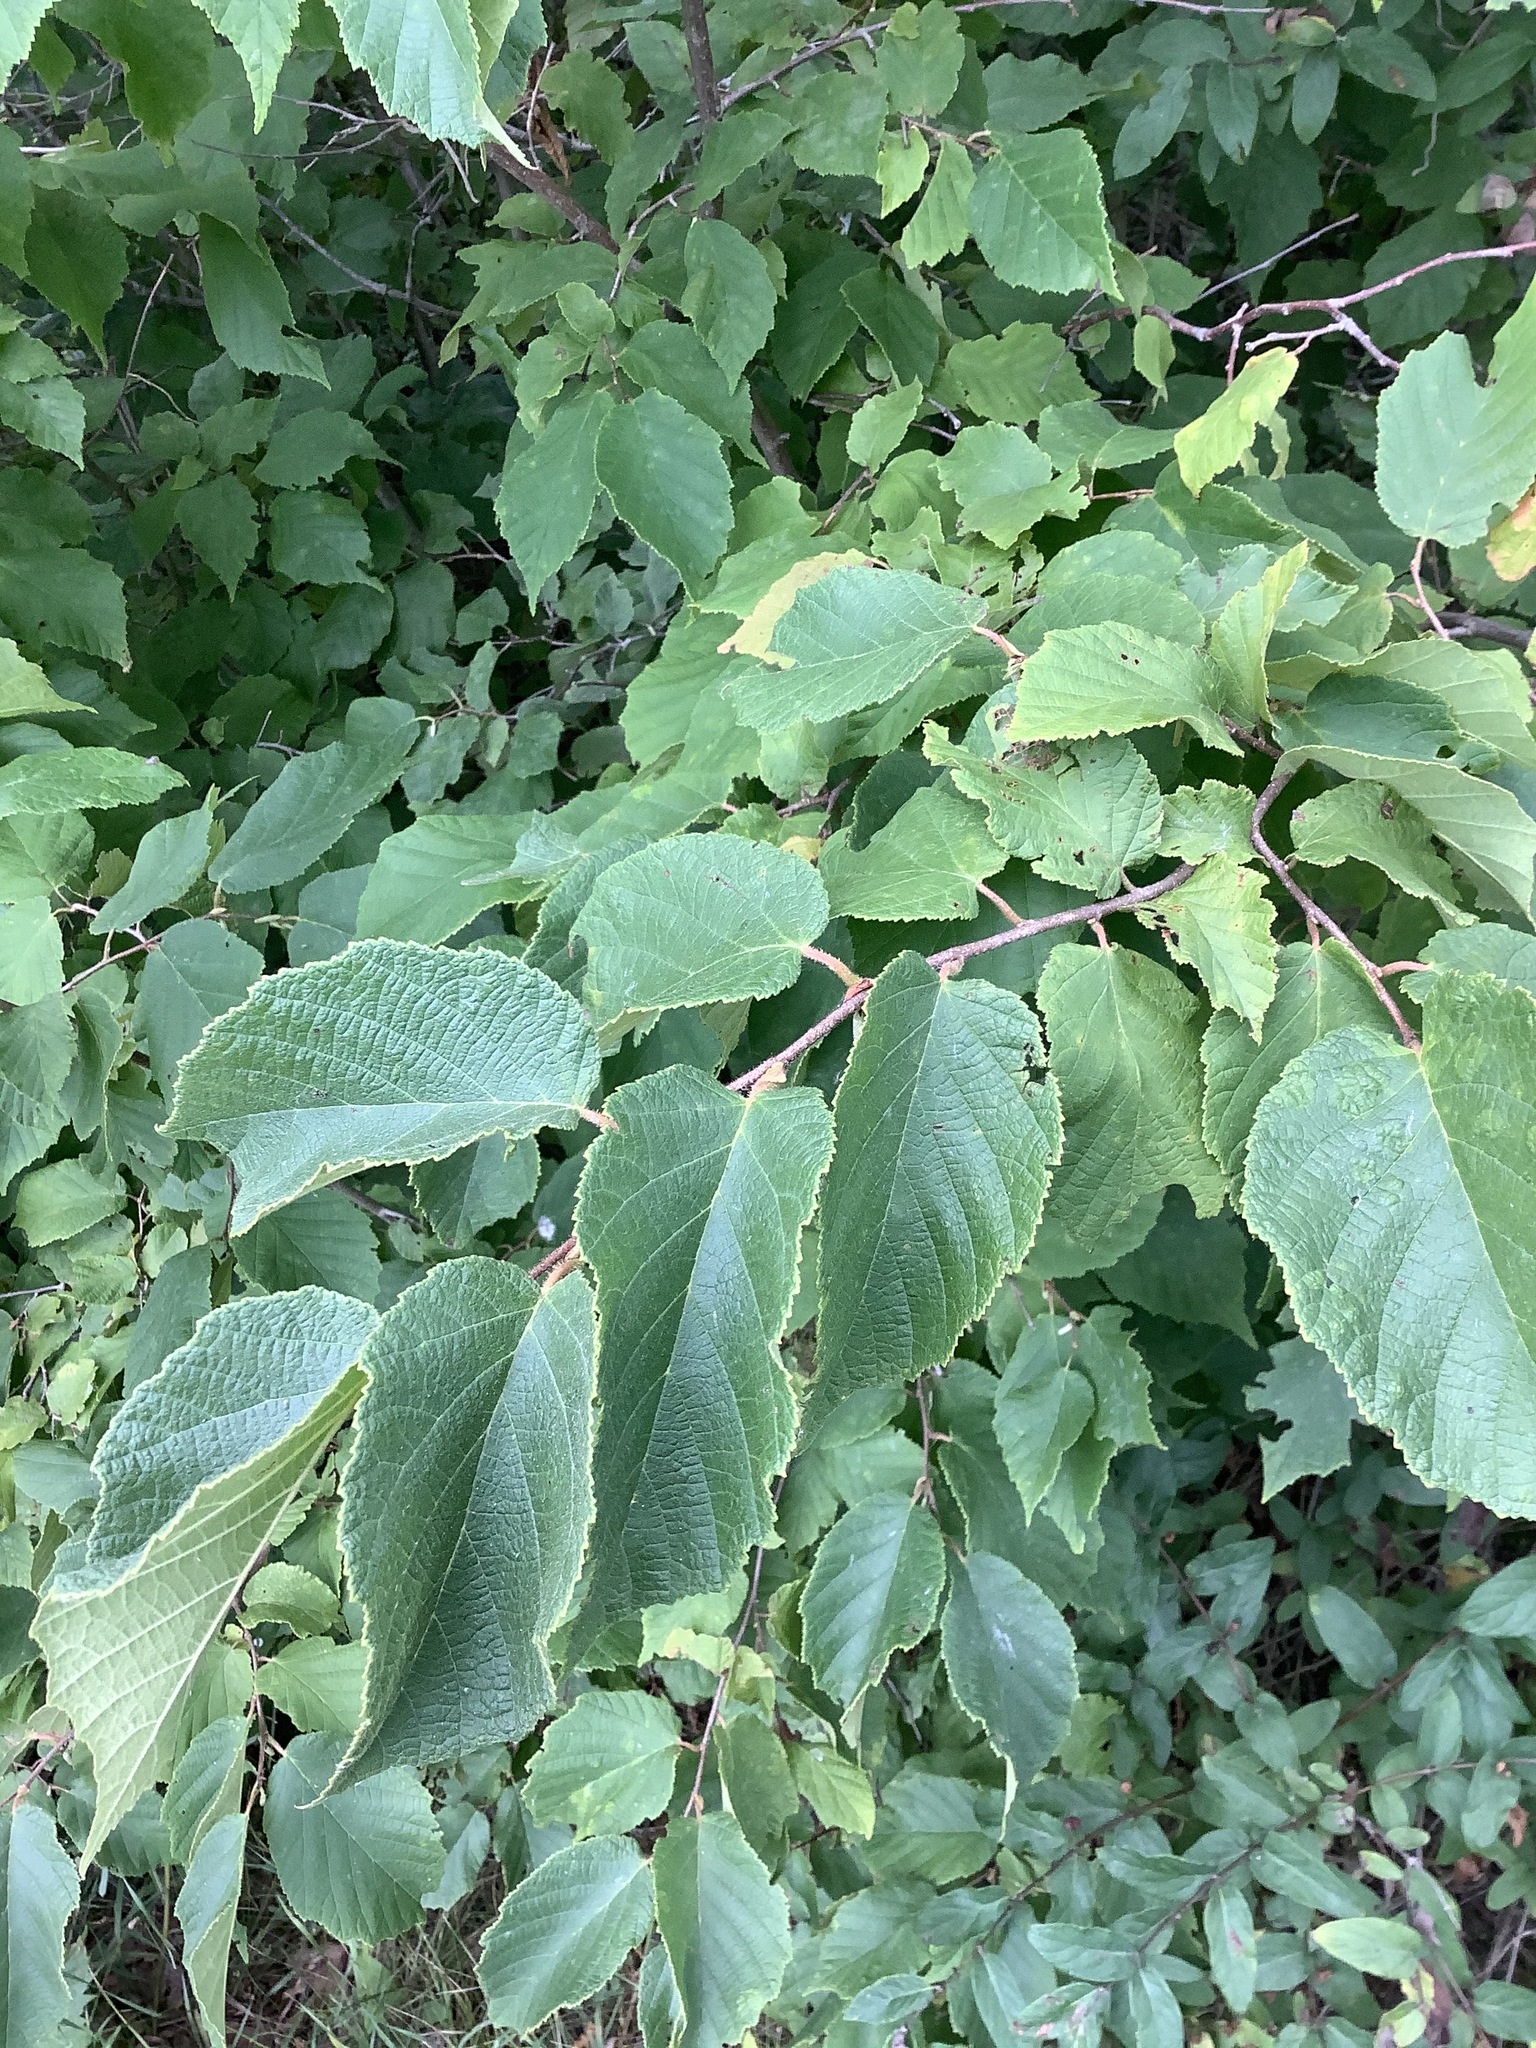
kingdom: Plantae
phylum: Tracheophyta
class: Magnoliopsida
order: Fagales
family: Betulaceae
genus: Corylus
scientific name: Corylus americana
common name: American hazel
